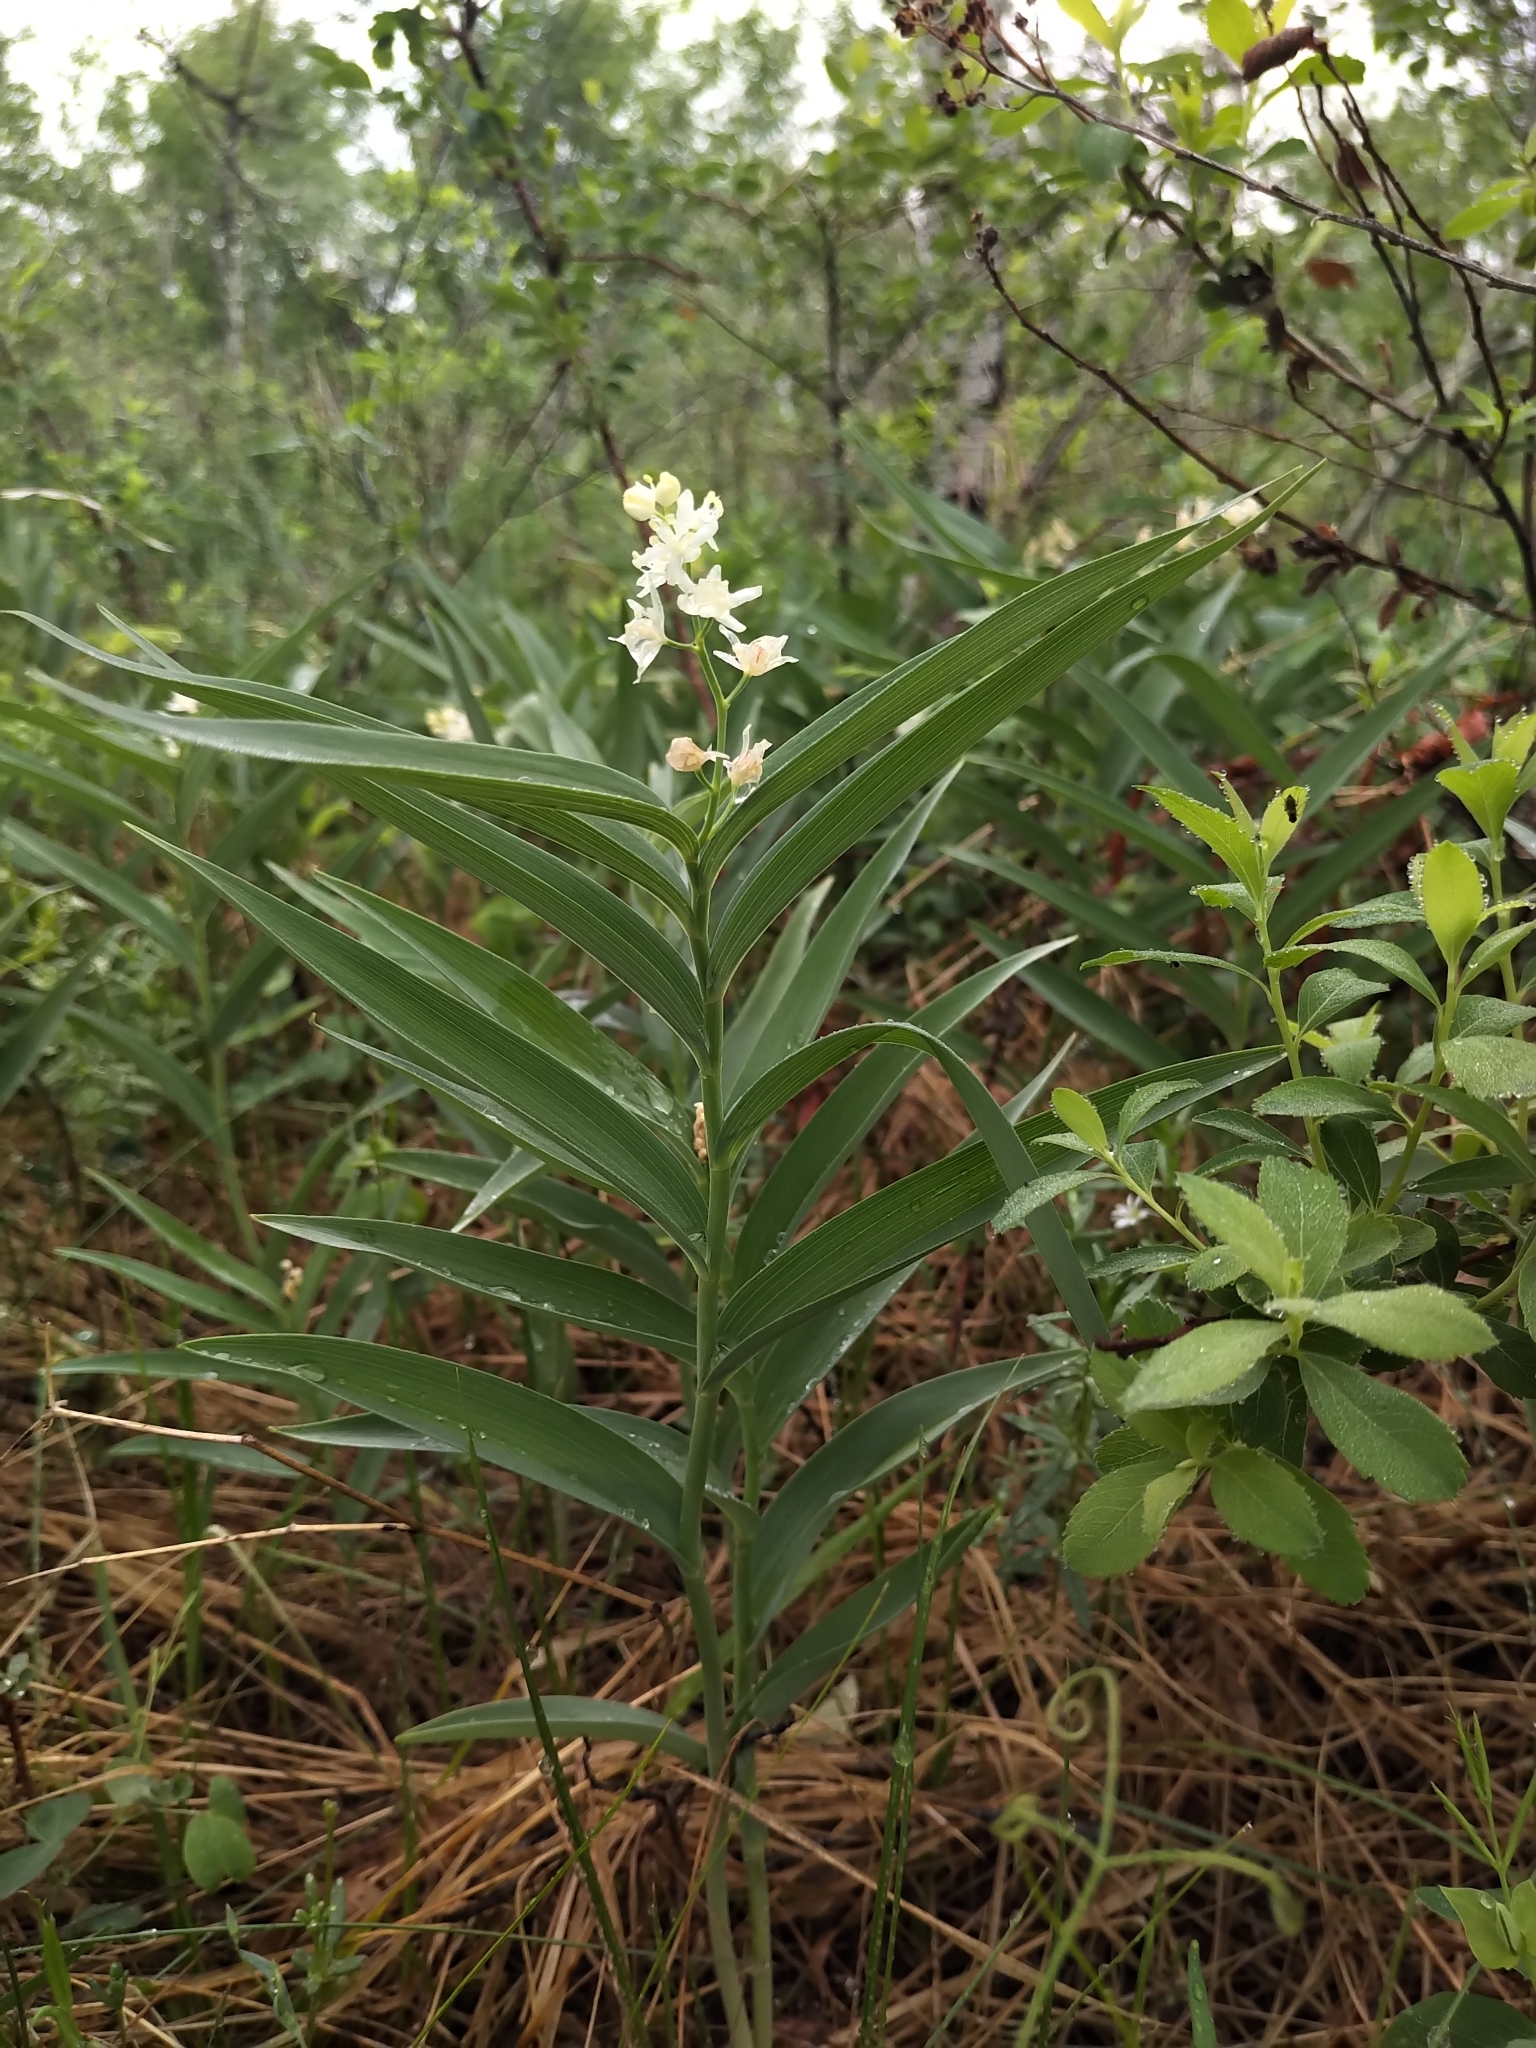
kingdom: Plantae
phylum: Tracheophyta
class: Liliopsida
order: Asparagales
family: Asparagaceae
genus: Maianthemum
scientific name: Maianthemum stellatum
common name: Little false solomon's seal
